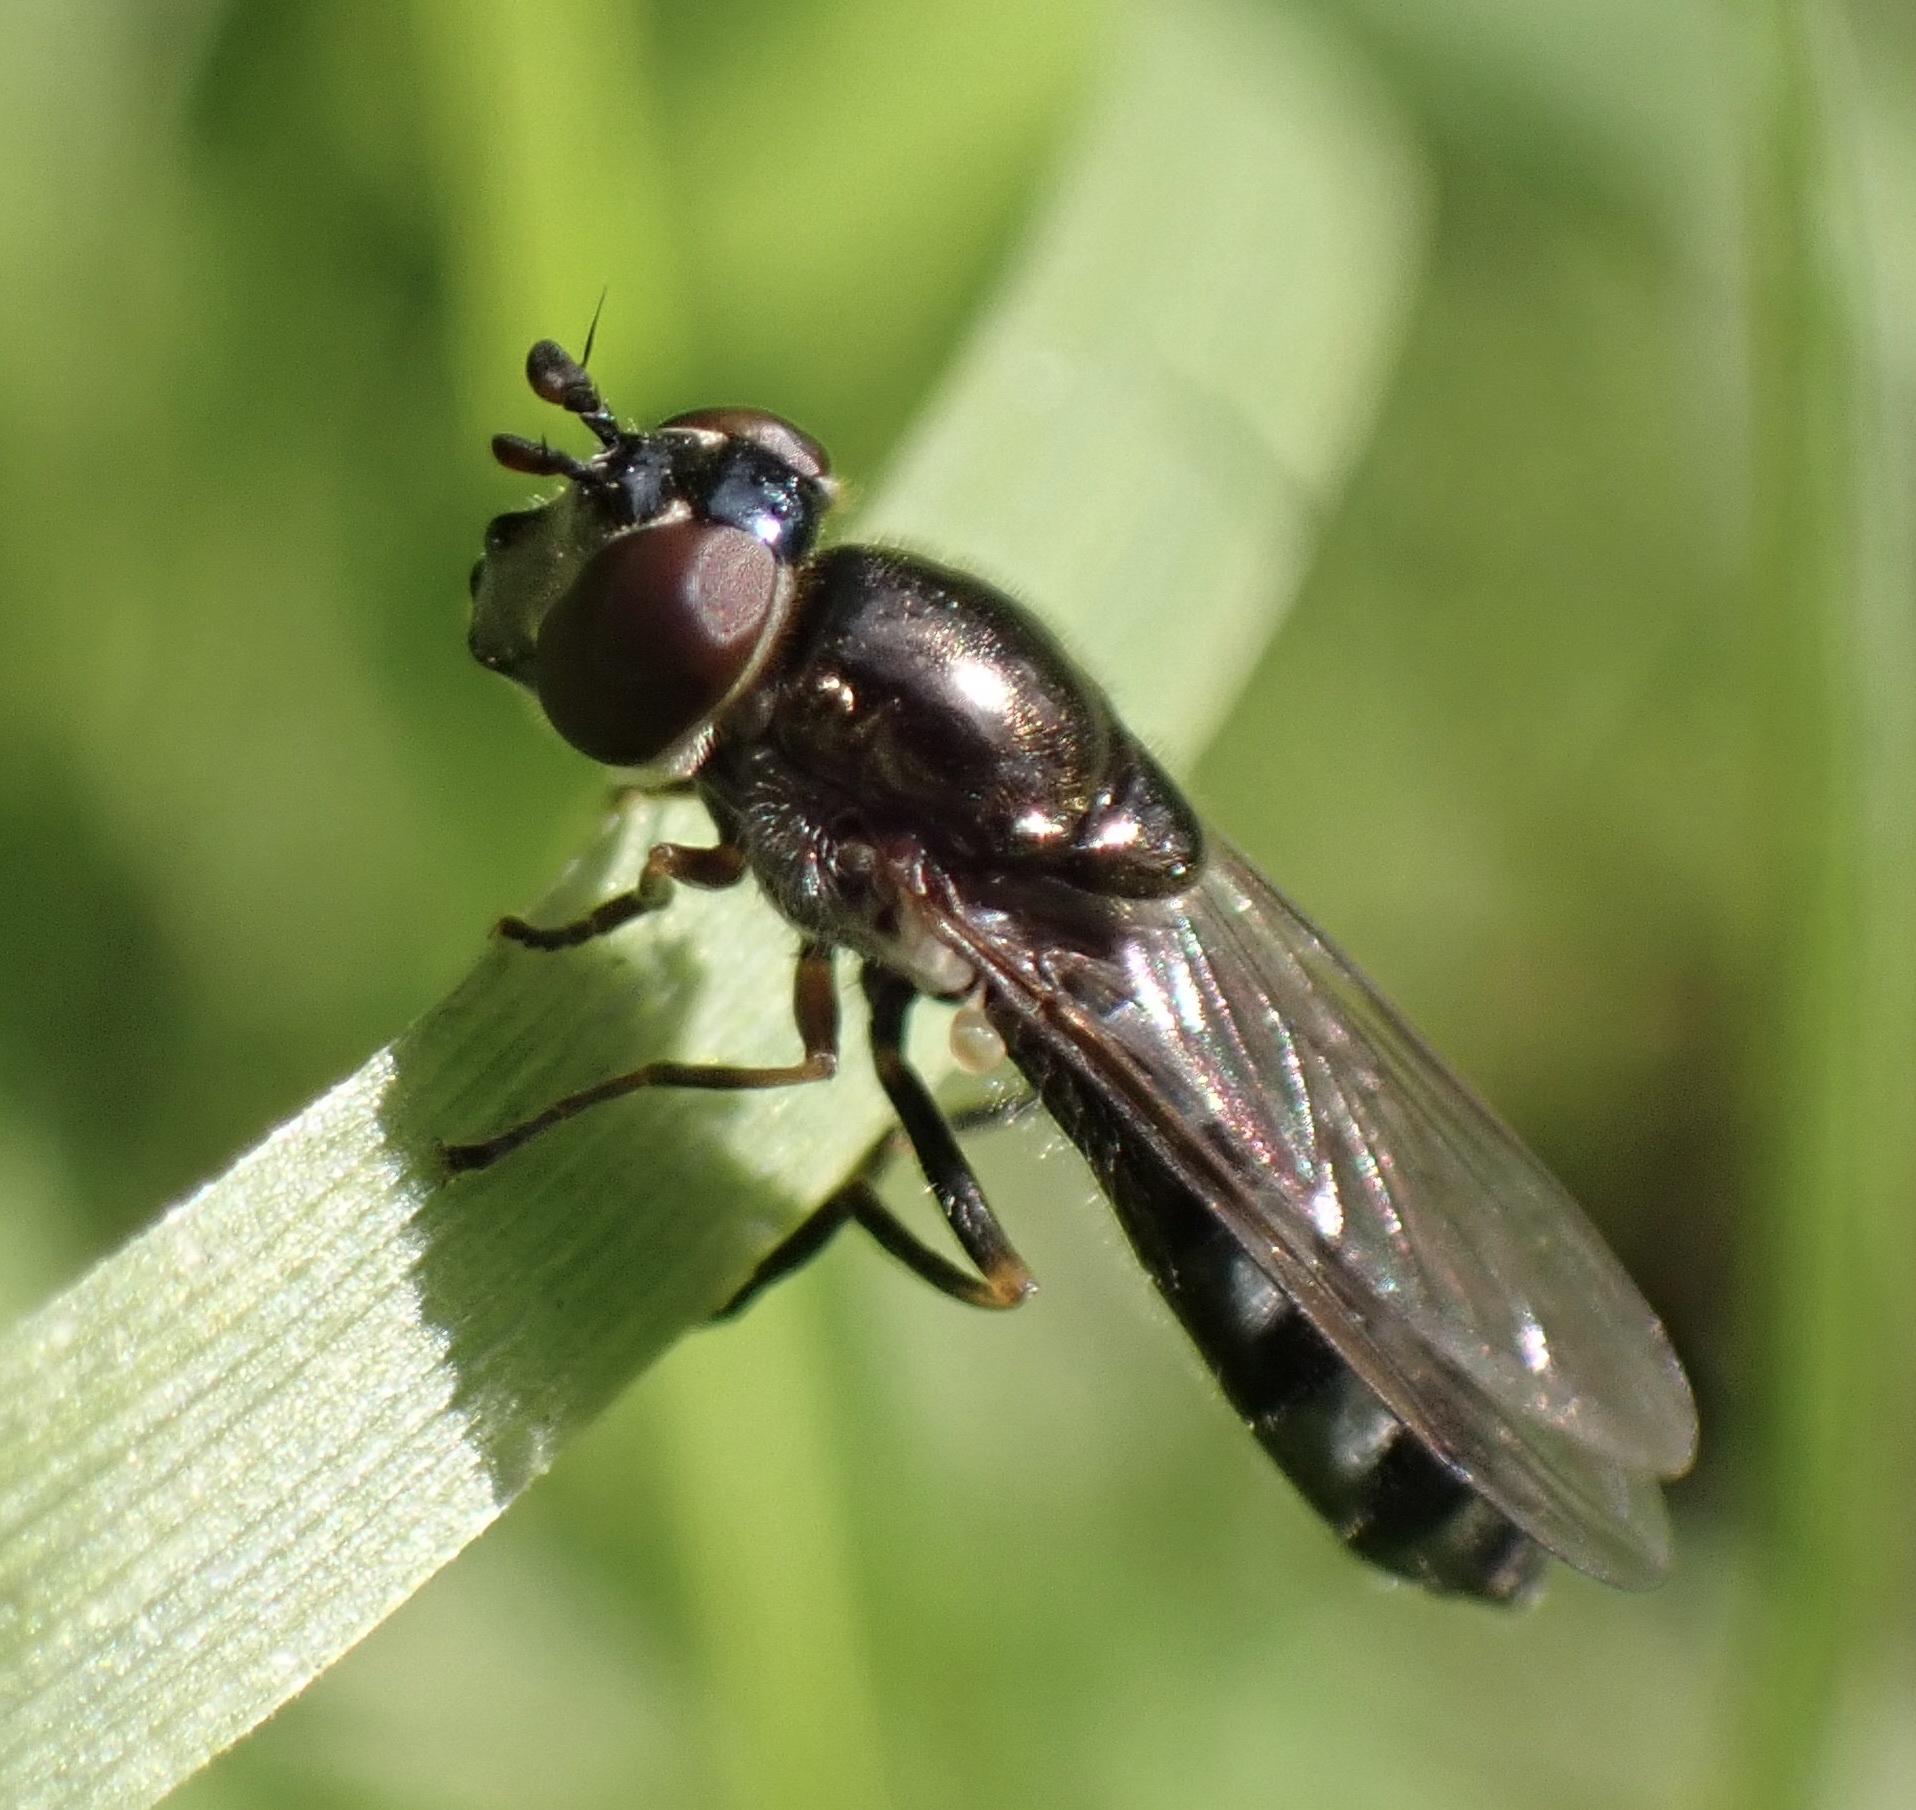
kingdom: Animalia
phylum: Arthropoda
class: Insecta
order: Diptera
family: Syrphidae
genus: Platycheirus
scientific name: Platycheirus albimanus
